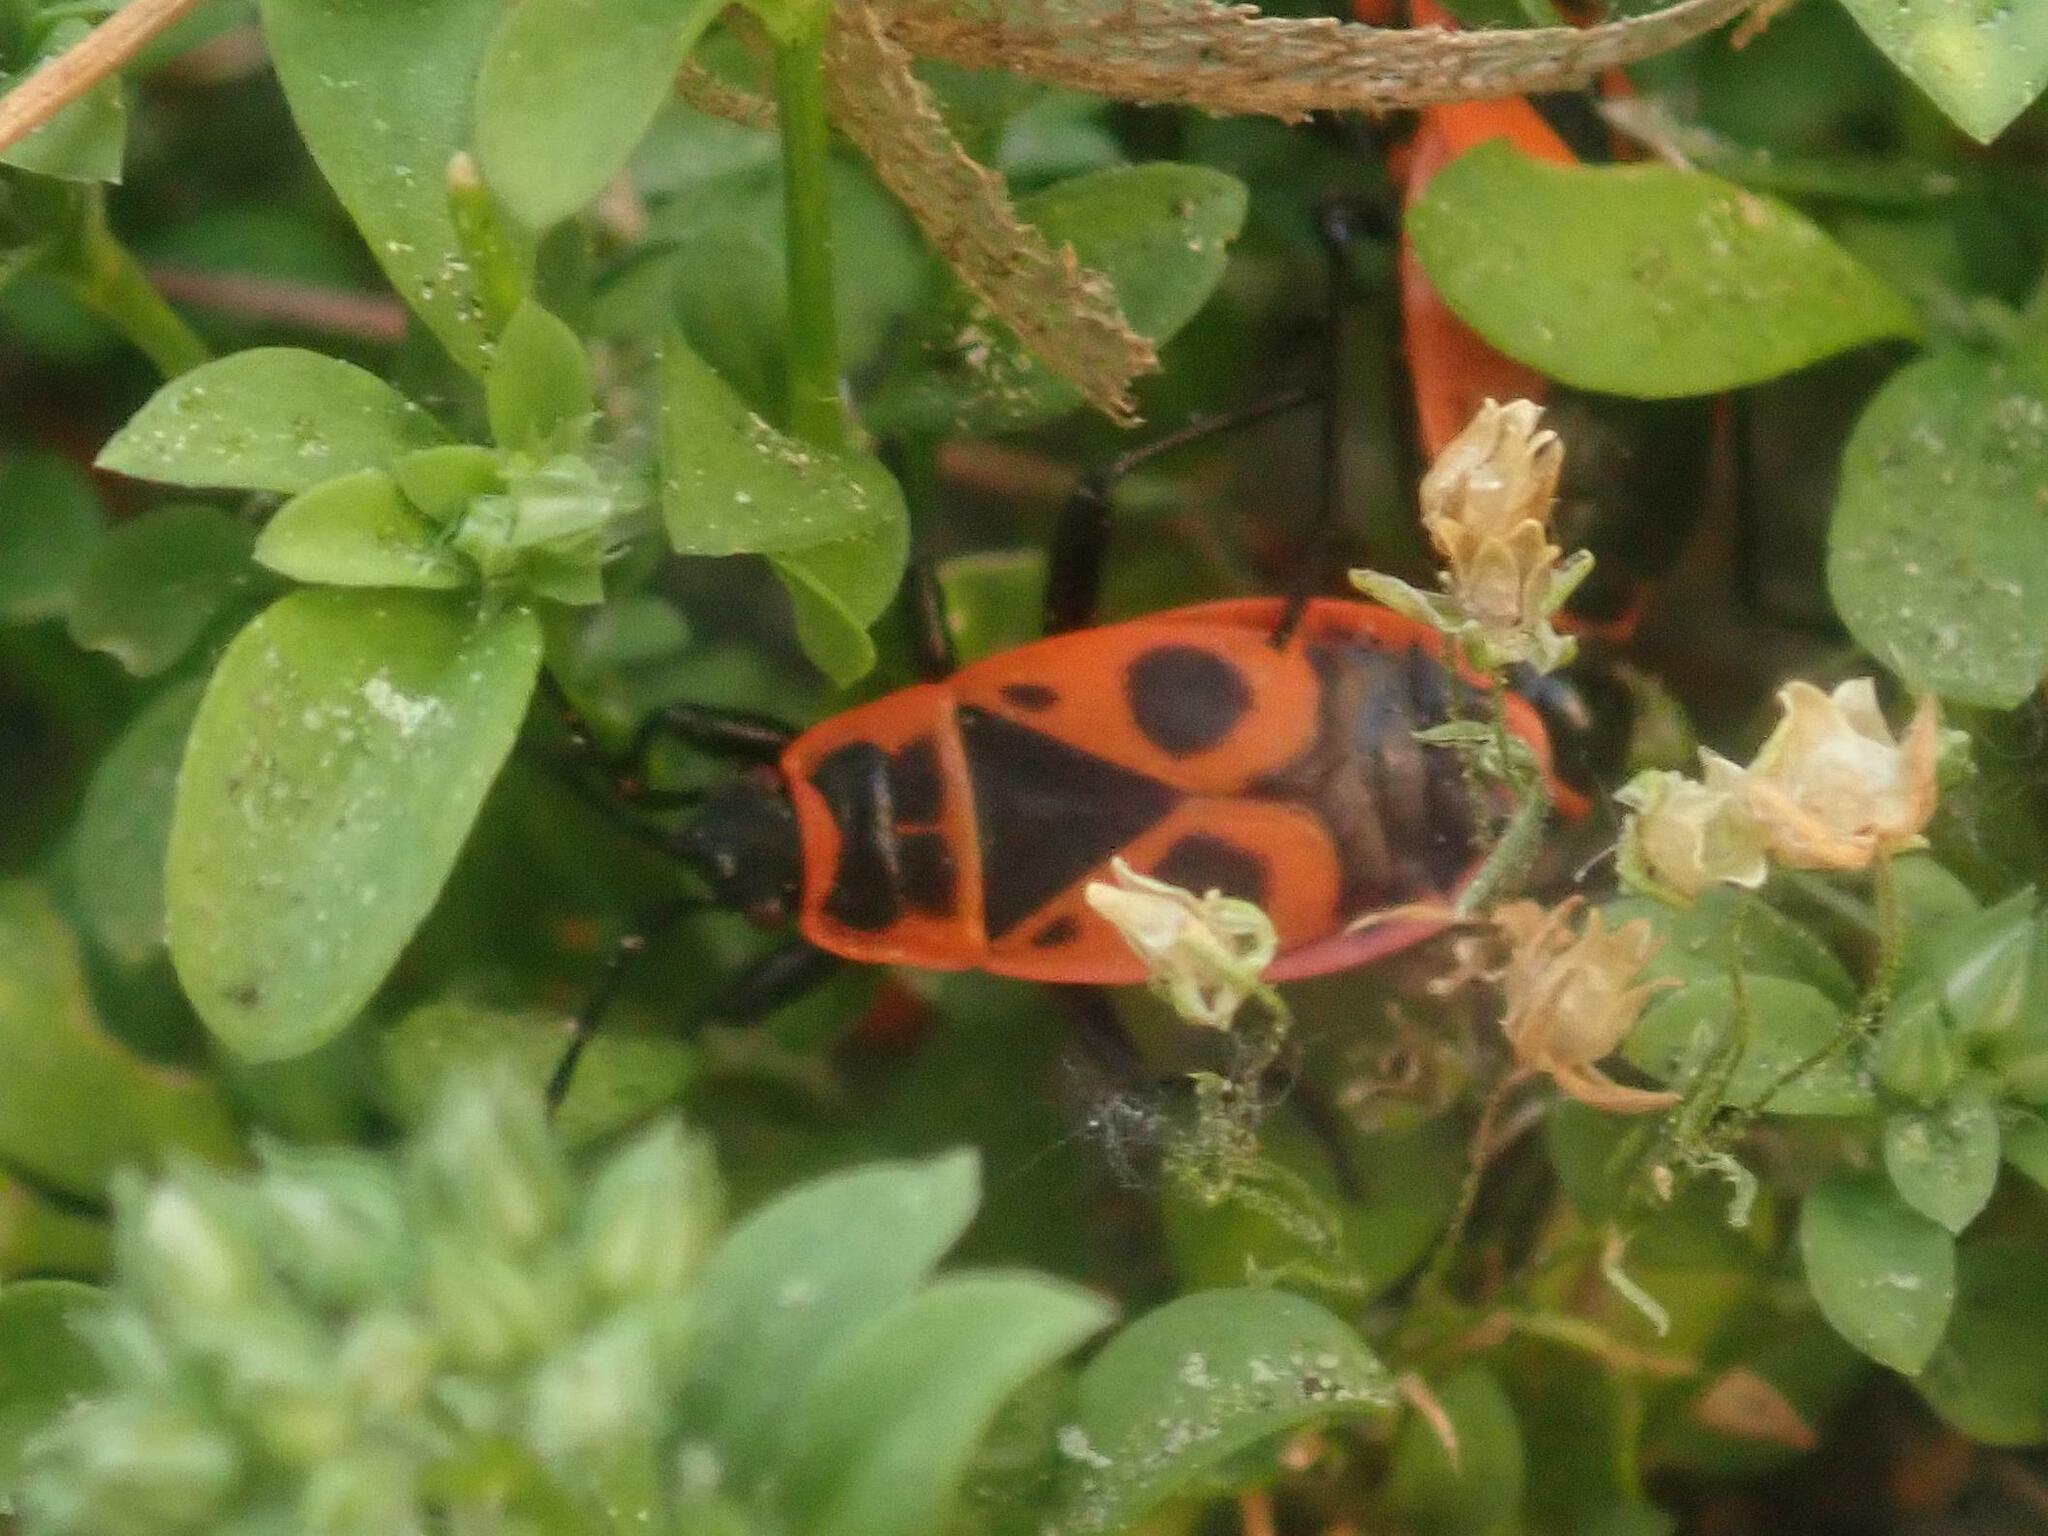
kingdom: Animalia
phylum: Arthropoda
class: Insecta
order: Hemiptera
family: Pyrrhocoridae
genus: Pyrrhocoris
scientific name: Pyrrhocoris apterus
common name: Firebug
